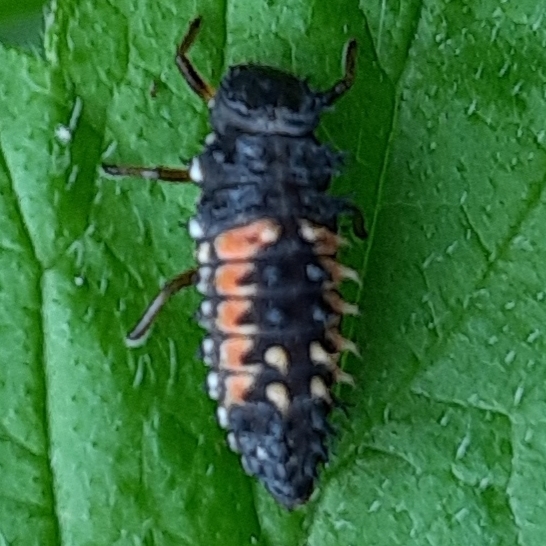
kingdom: Animalia
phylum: Arthropoda
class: Insecta
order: Coleoptera
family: Coccinellidae
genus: Harmonia
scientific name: Harmonia axyridis
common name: Harlequin ladybird
